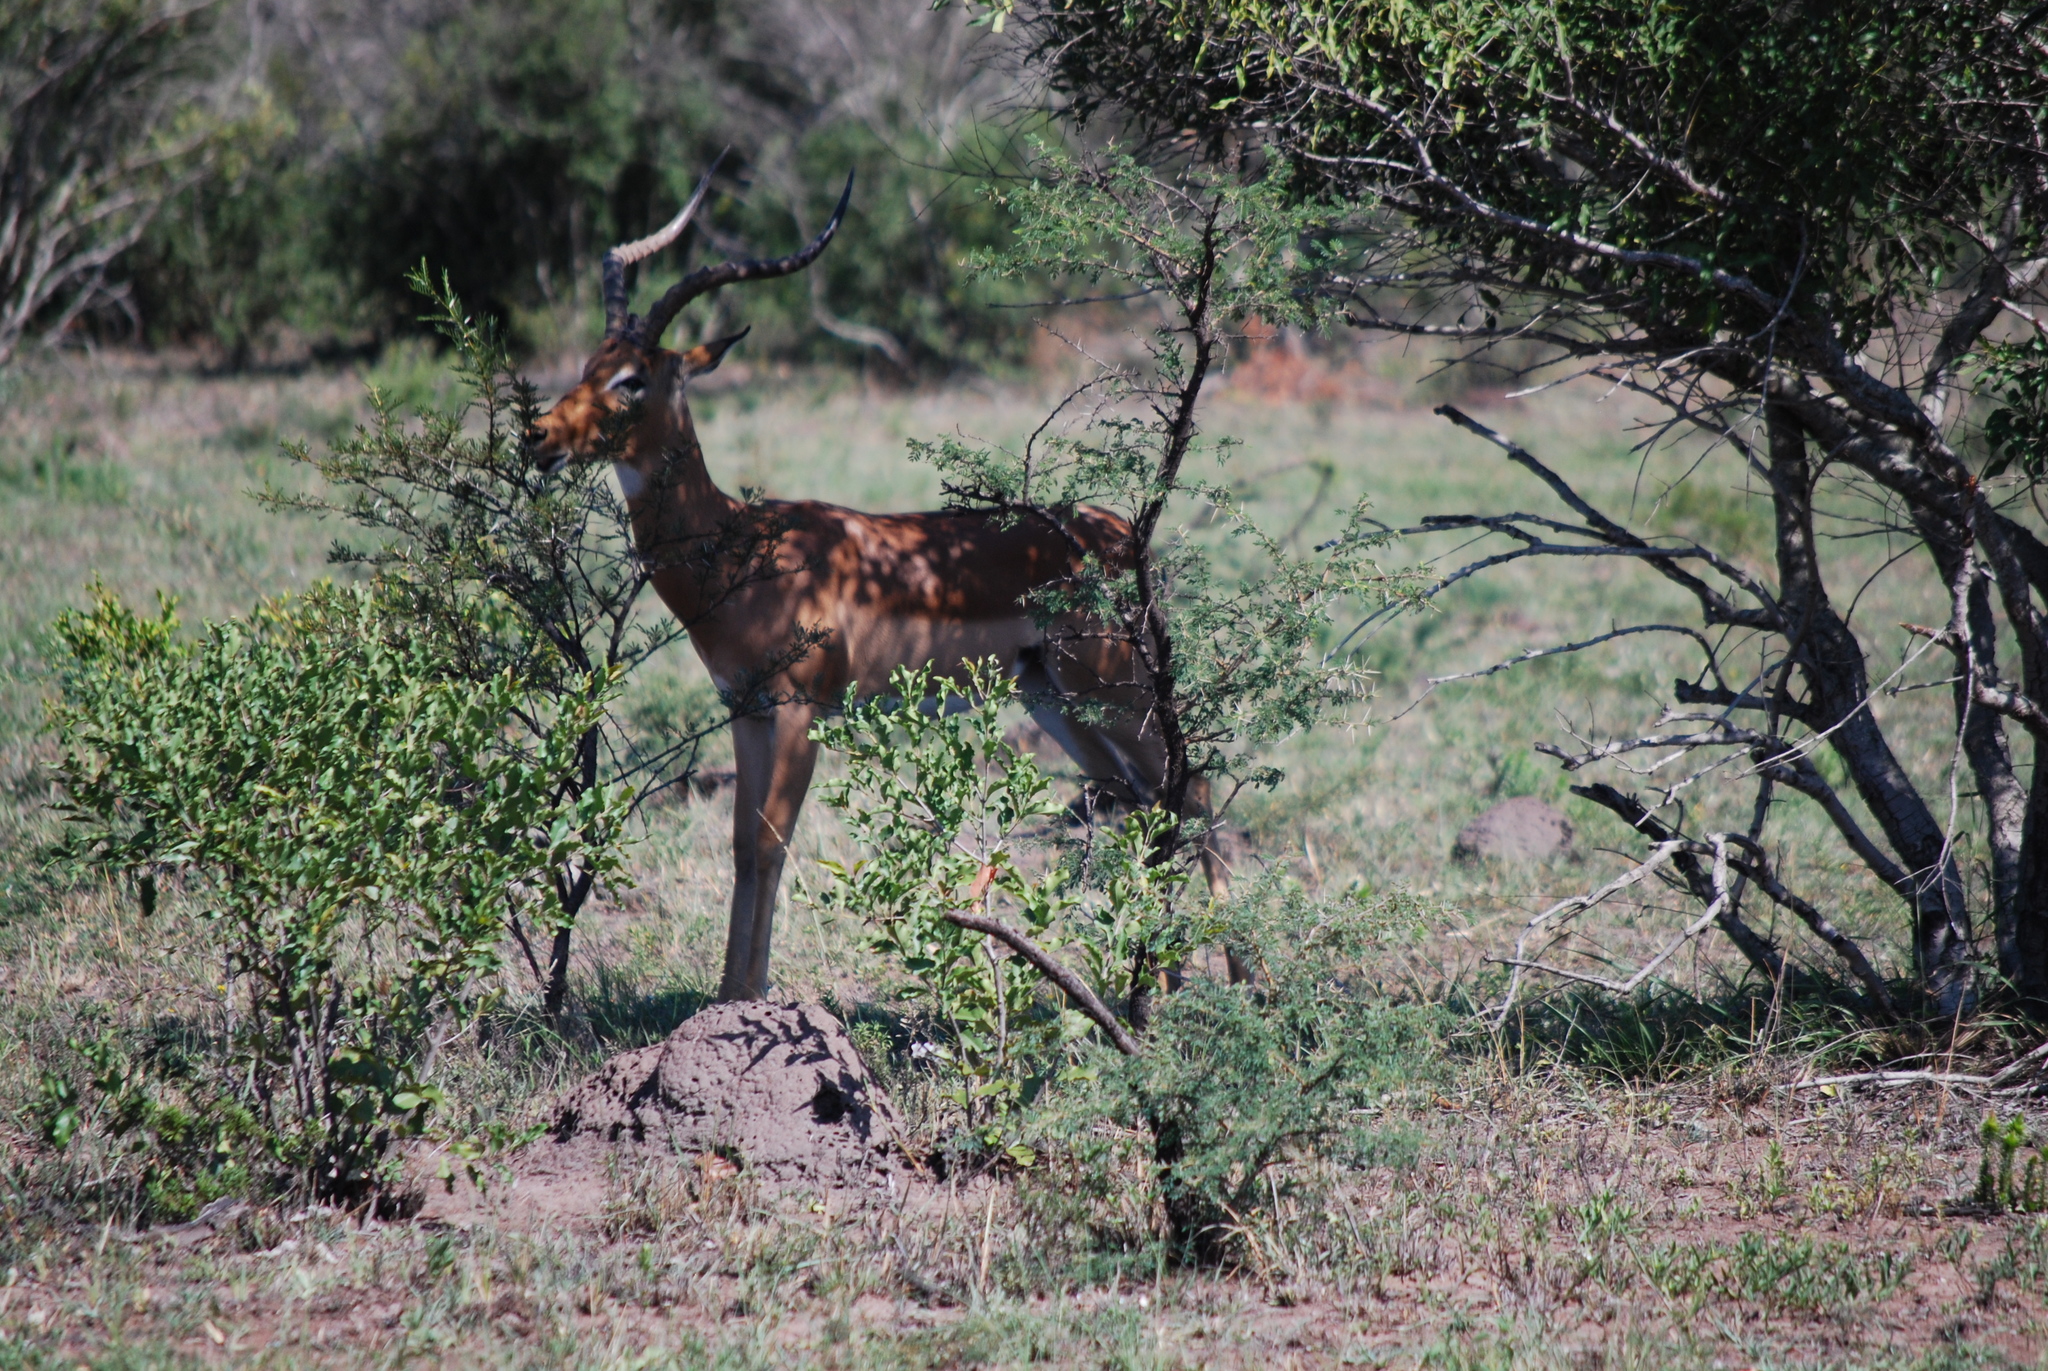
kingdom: Animalia
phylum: Chordata
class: Mammalia
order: Artiodactyla
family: Bovidae
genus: Aepyceros
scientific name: Aepyceros melampus
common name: Impala
